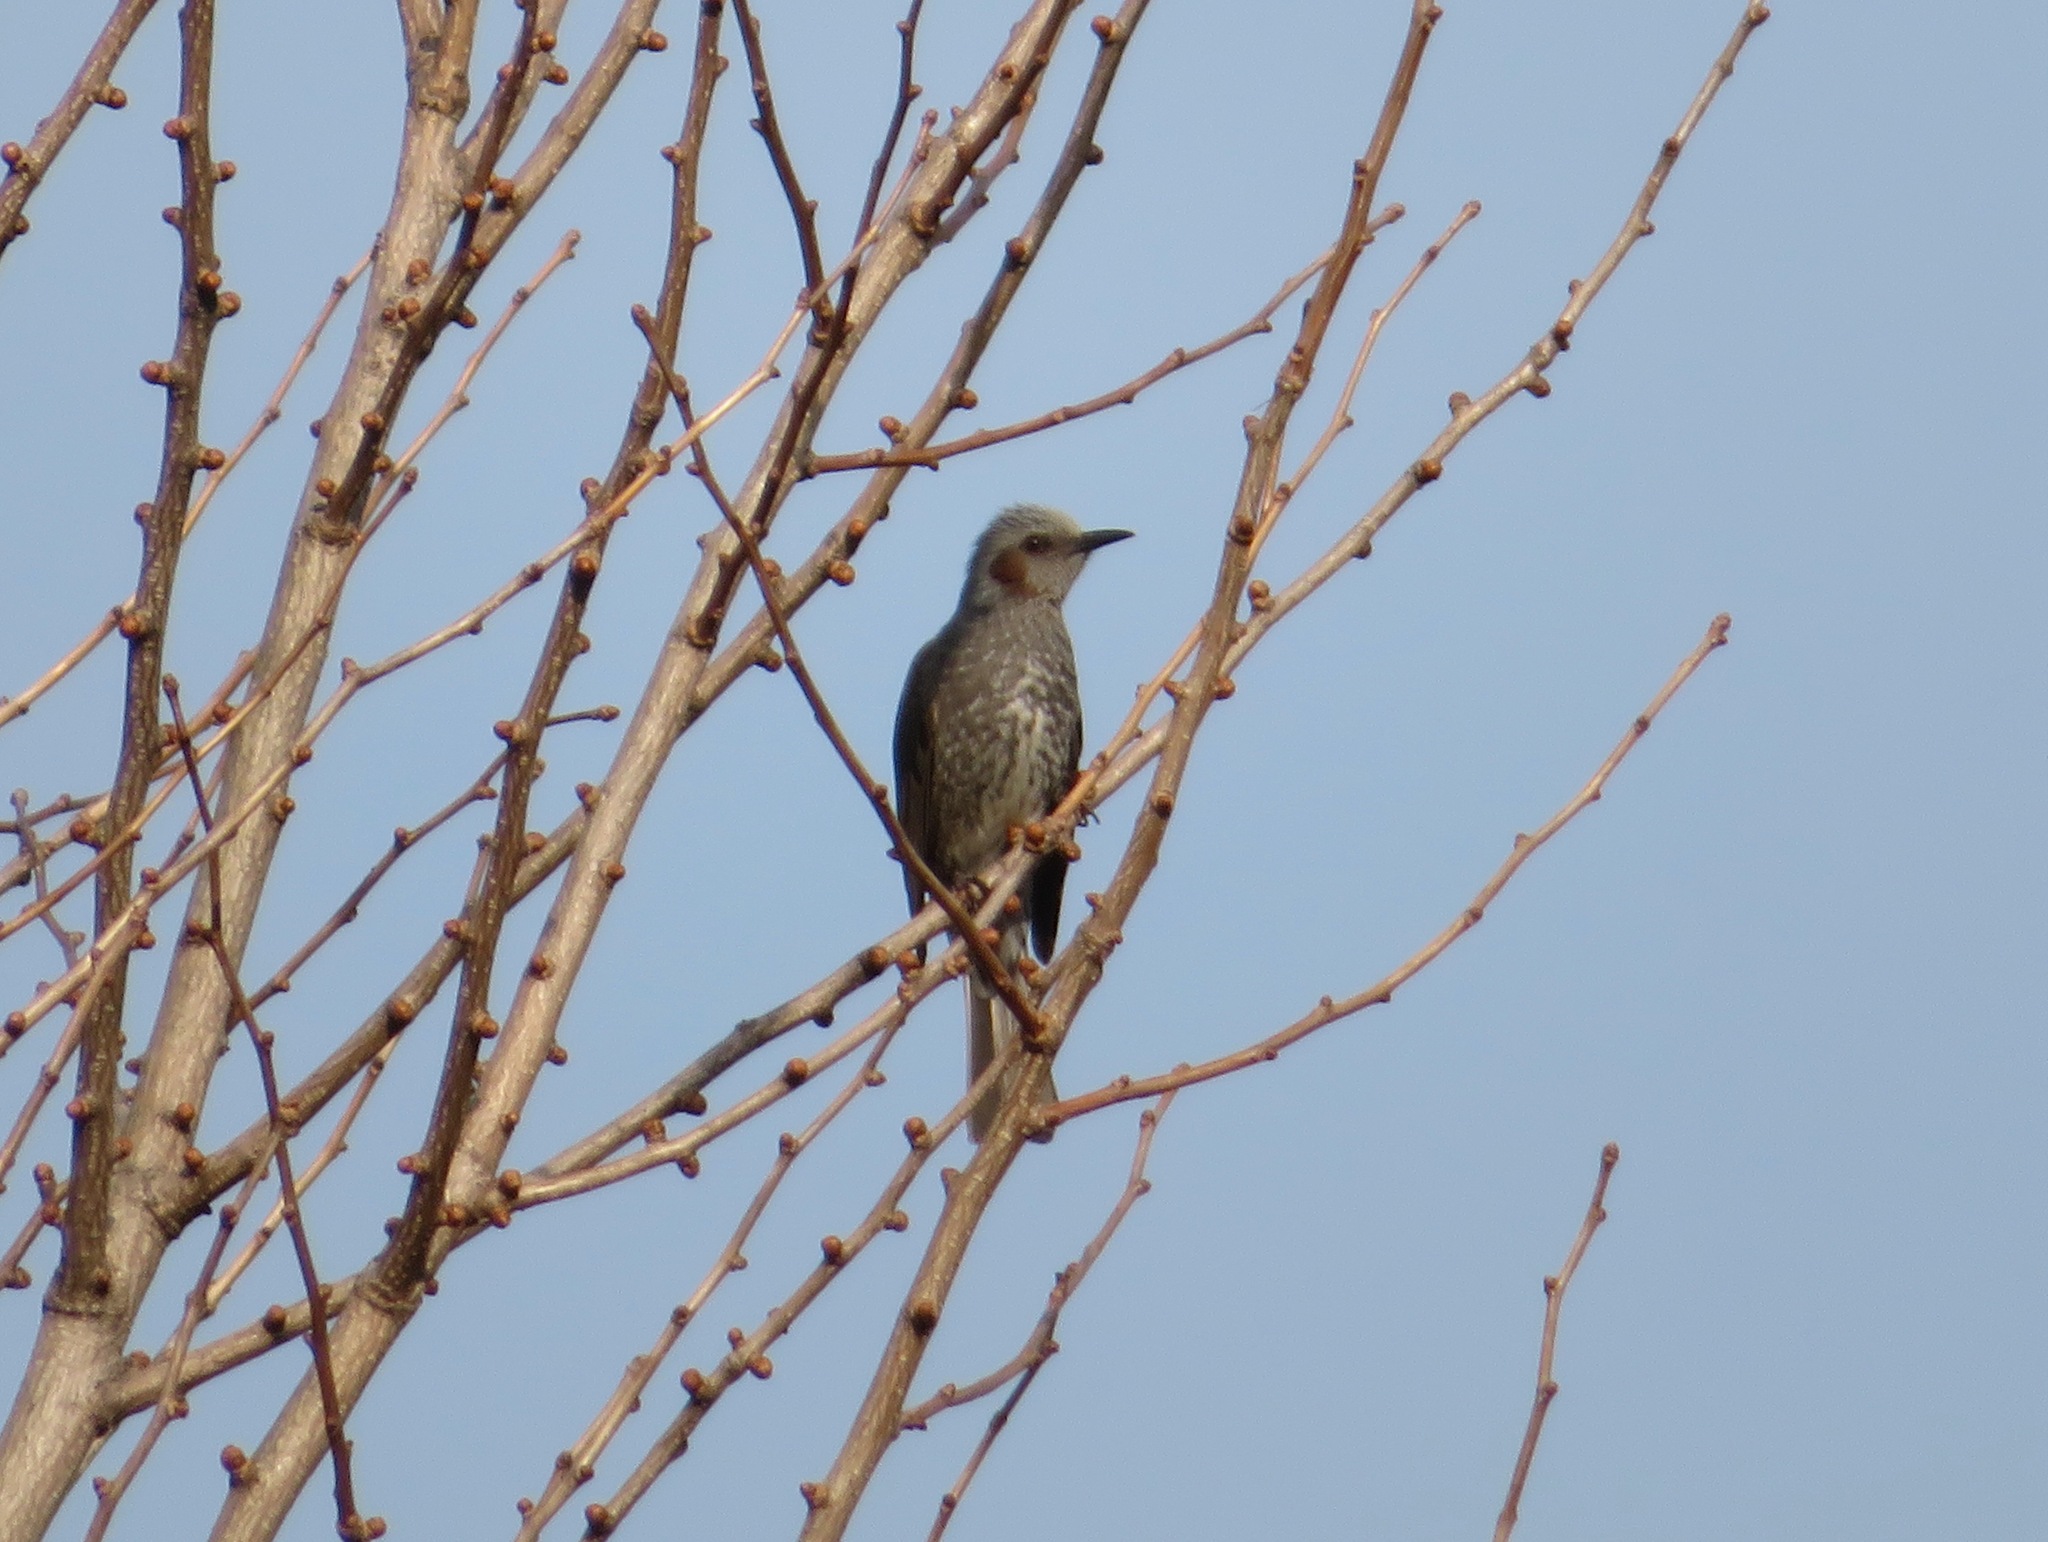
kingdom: Animalia
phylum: Chordata
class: Aves
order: Passeriformes
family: Pycnonotidae
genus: Hypsipetes
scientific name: Hypsipetes amaurotis
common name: Brown-eared bulbul
